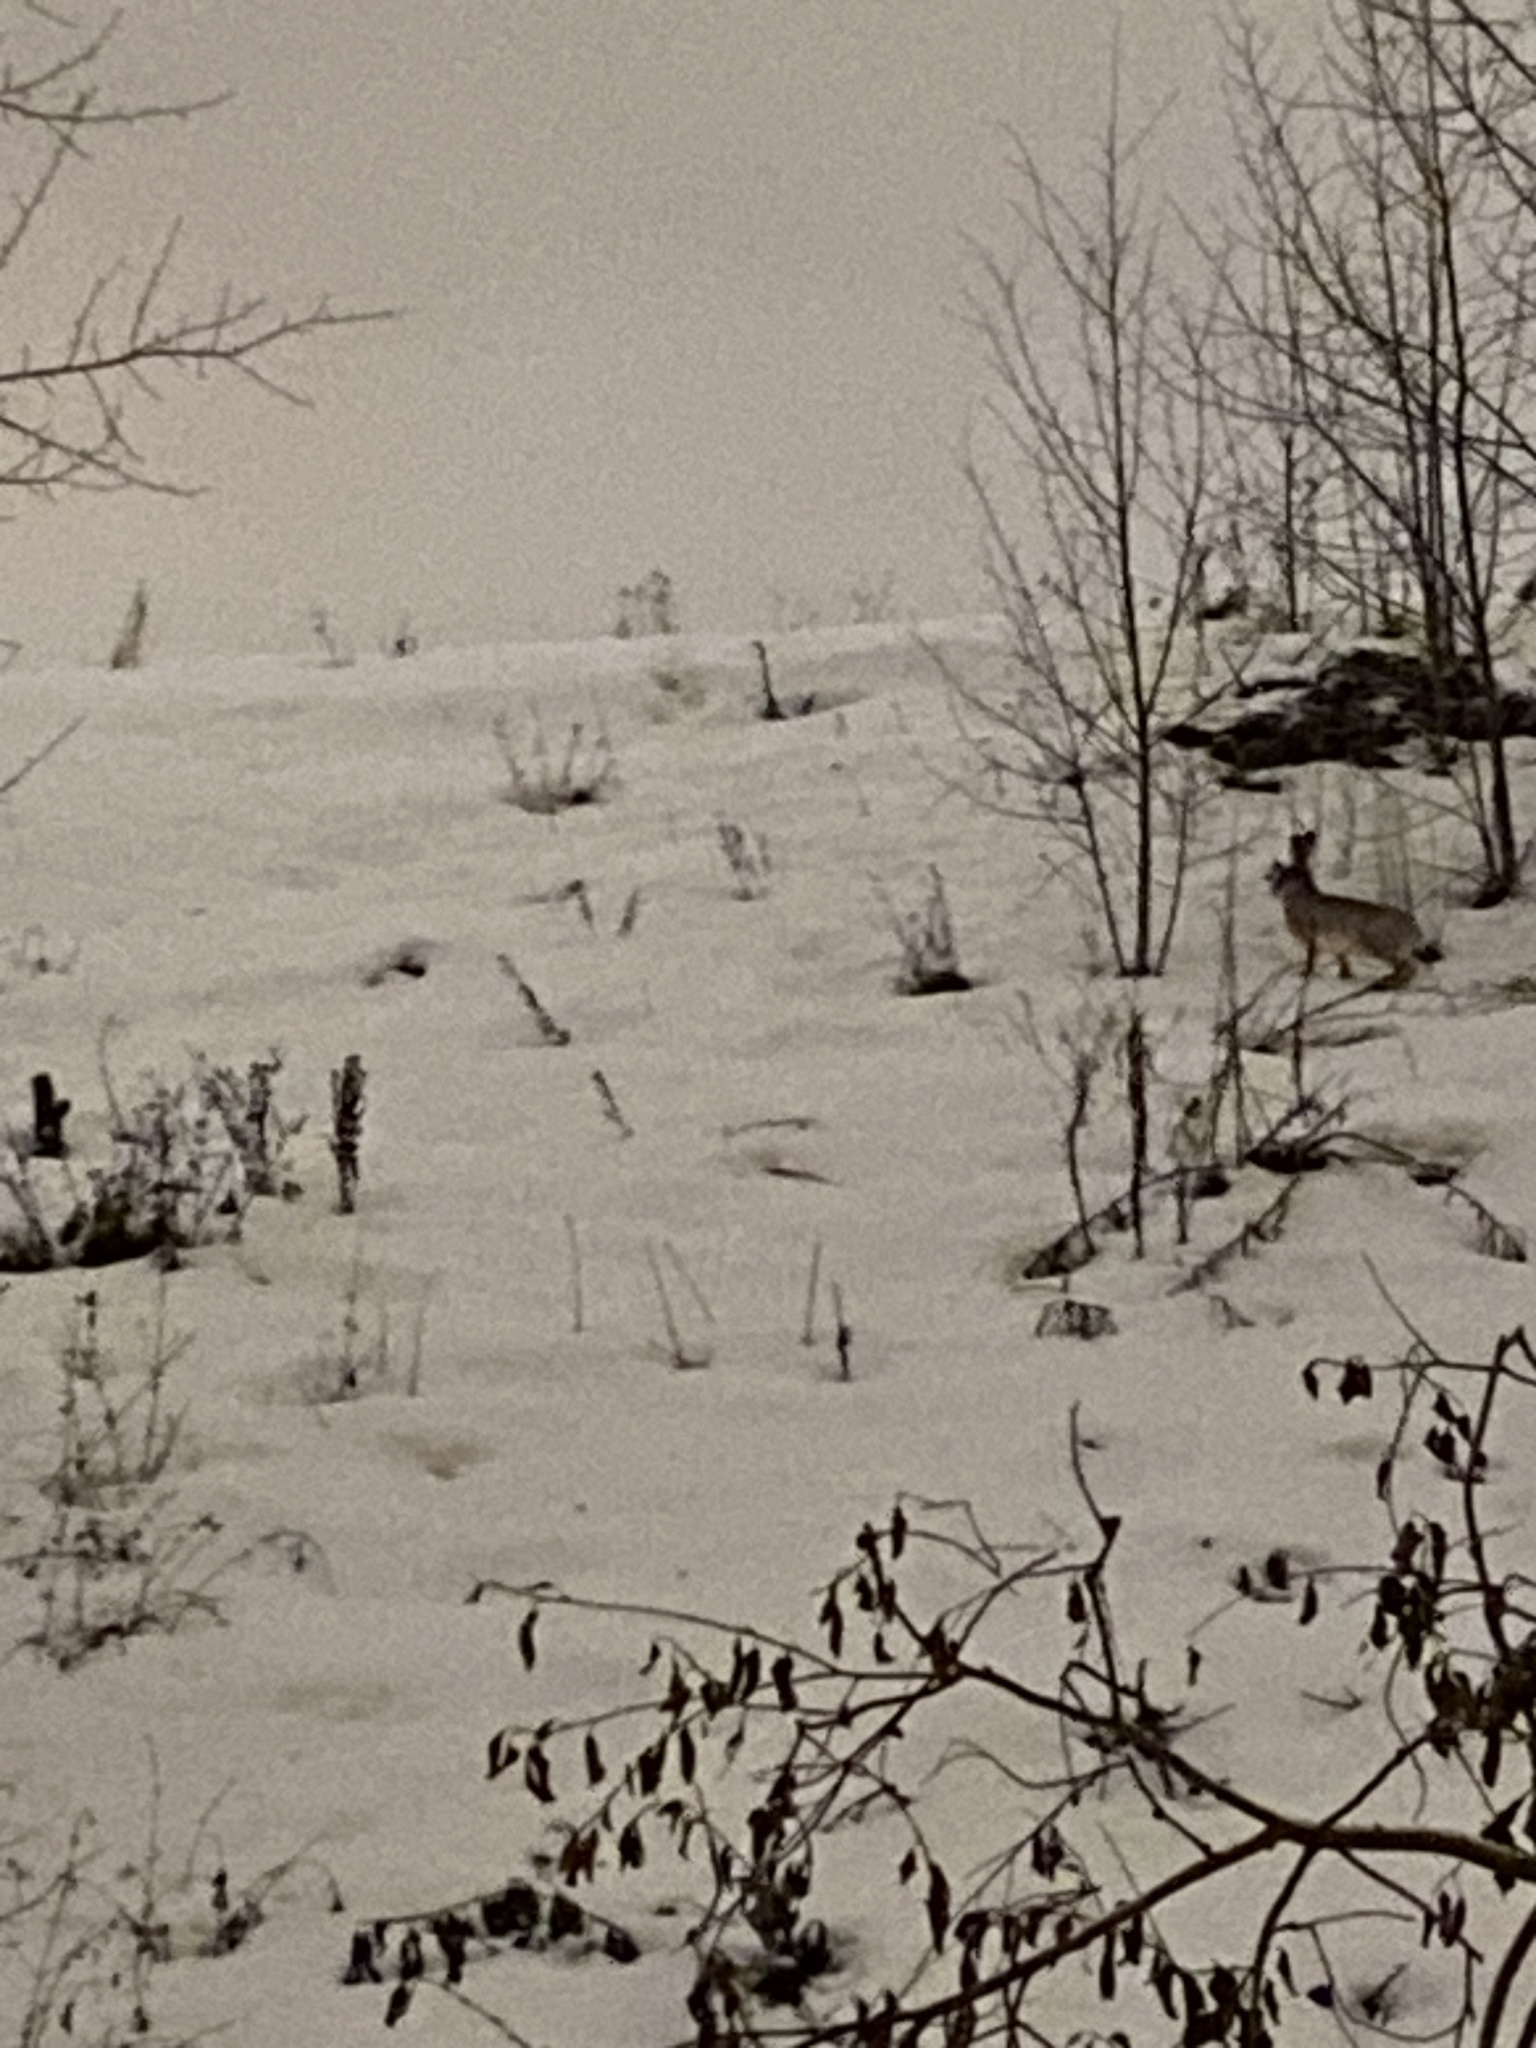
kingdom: Animalia
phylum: Chordata
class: Mammalia
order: Lagomorpha
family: Leporidae
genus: Lepus
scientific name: Lepus europaeus
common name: European hare
